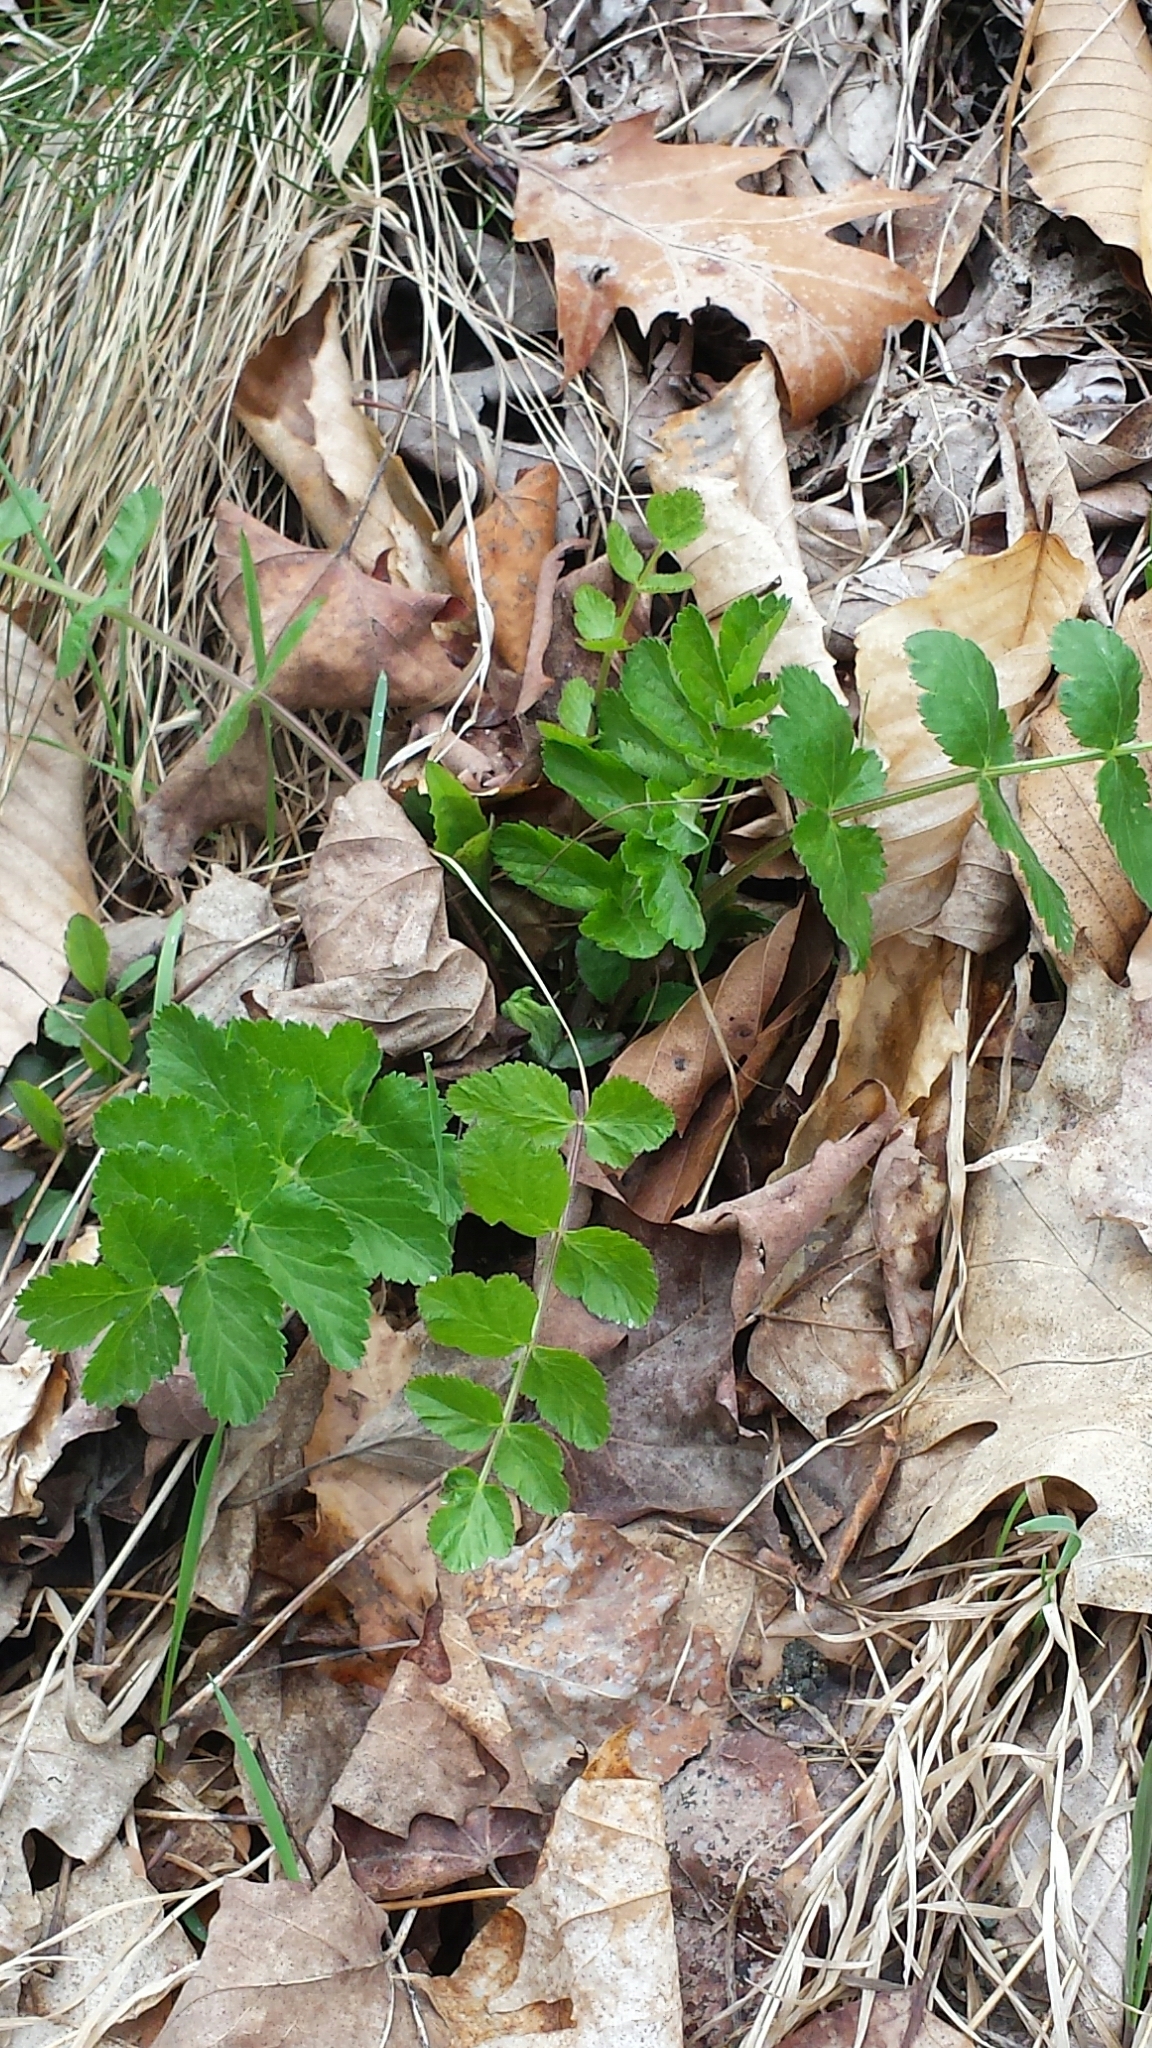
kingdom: Plantae
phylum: Tracheophyta
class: Magnoliopsida
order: Apiales
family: Apiaceae
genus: Pastinaca
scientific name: Pastinaca sativa
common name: Wild parsnip
